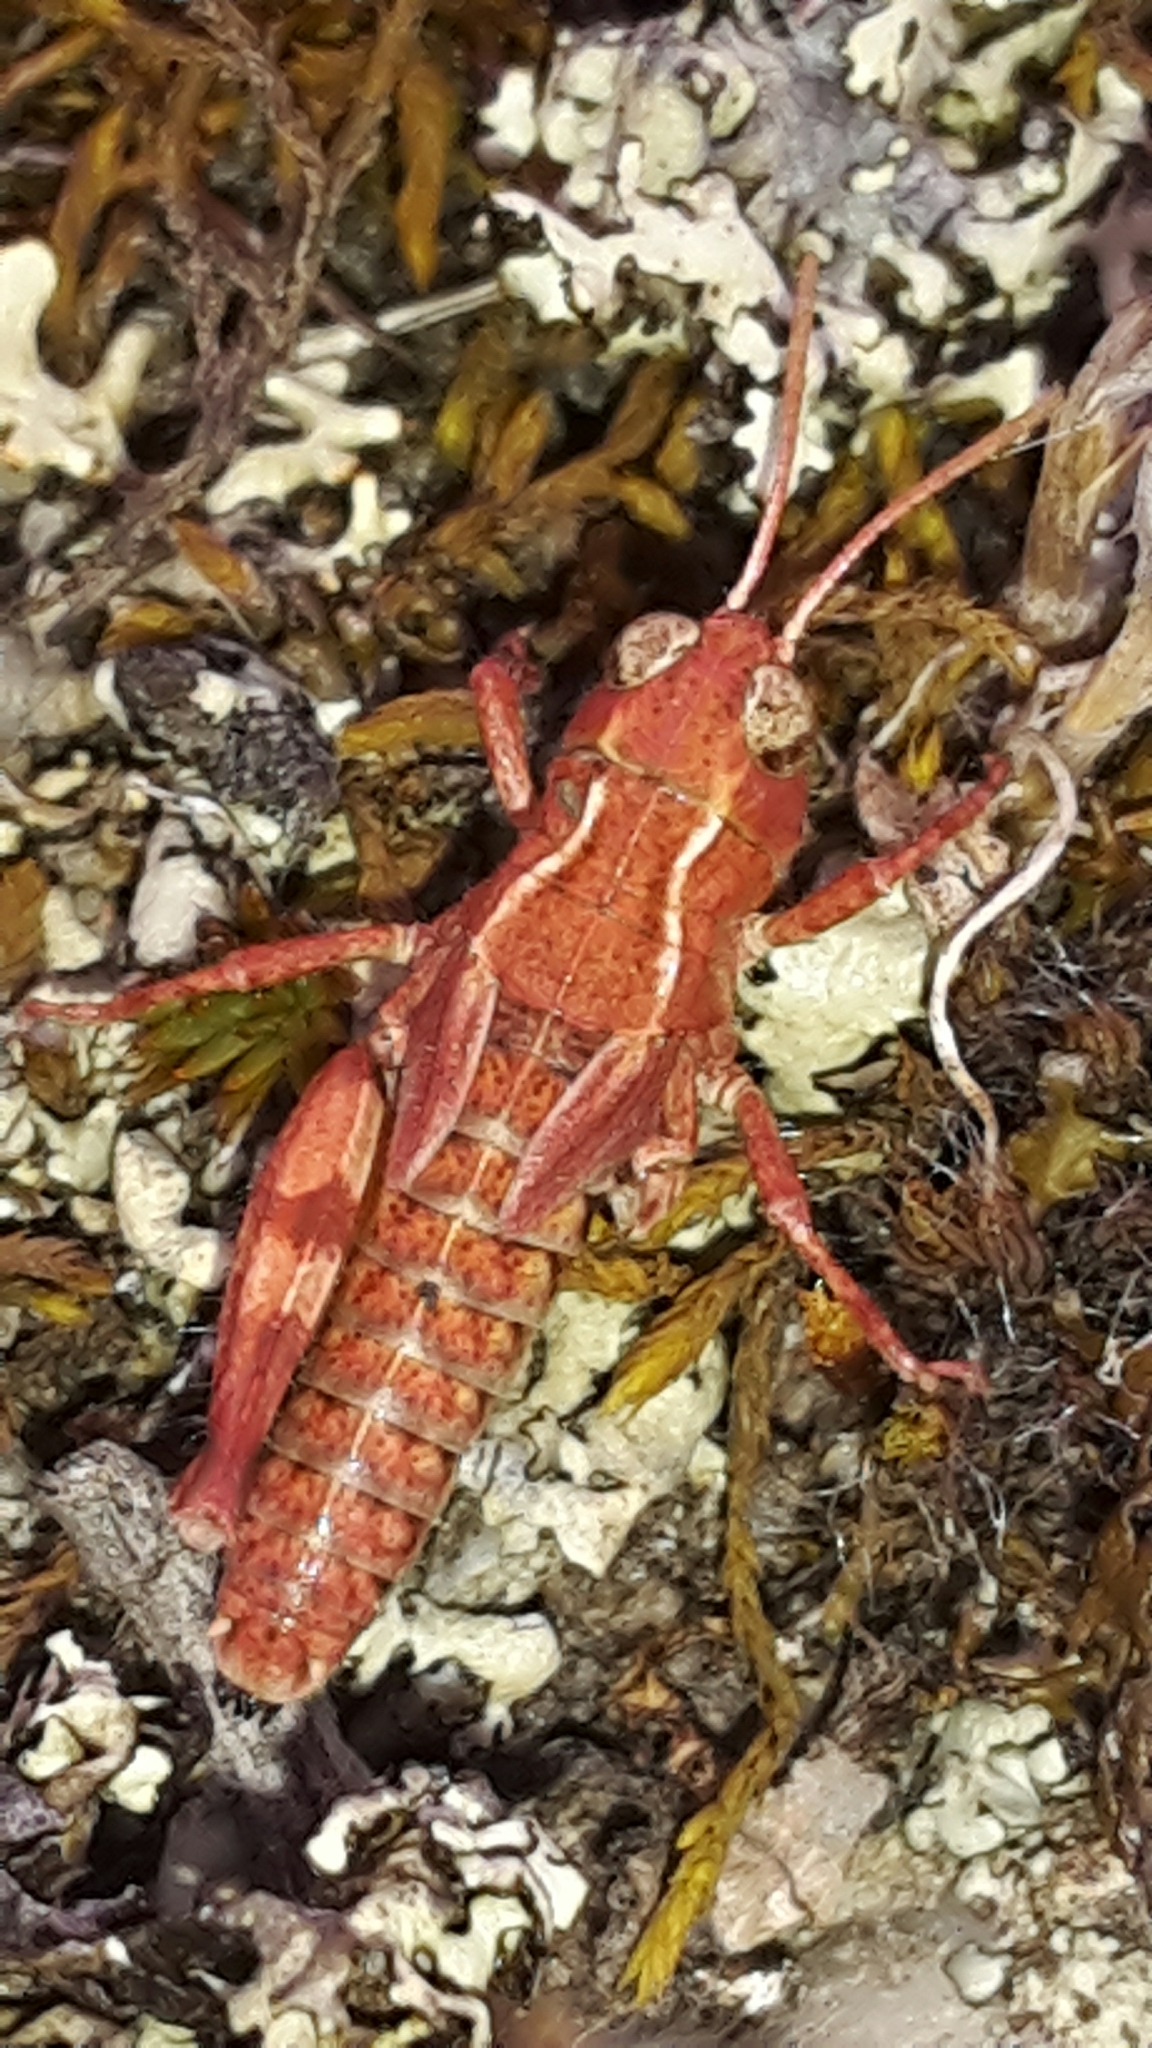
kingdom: Animalia
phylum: Arthropoda
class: Insecta
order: Orthoptera
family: Acrididae
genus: Phaulacridium
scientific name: Phaulacridium marginale
